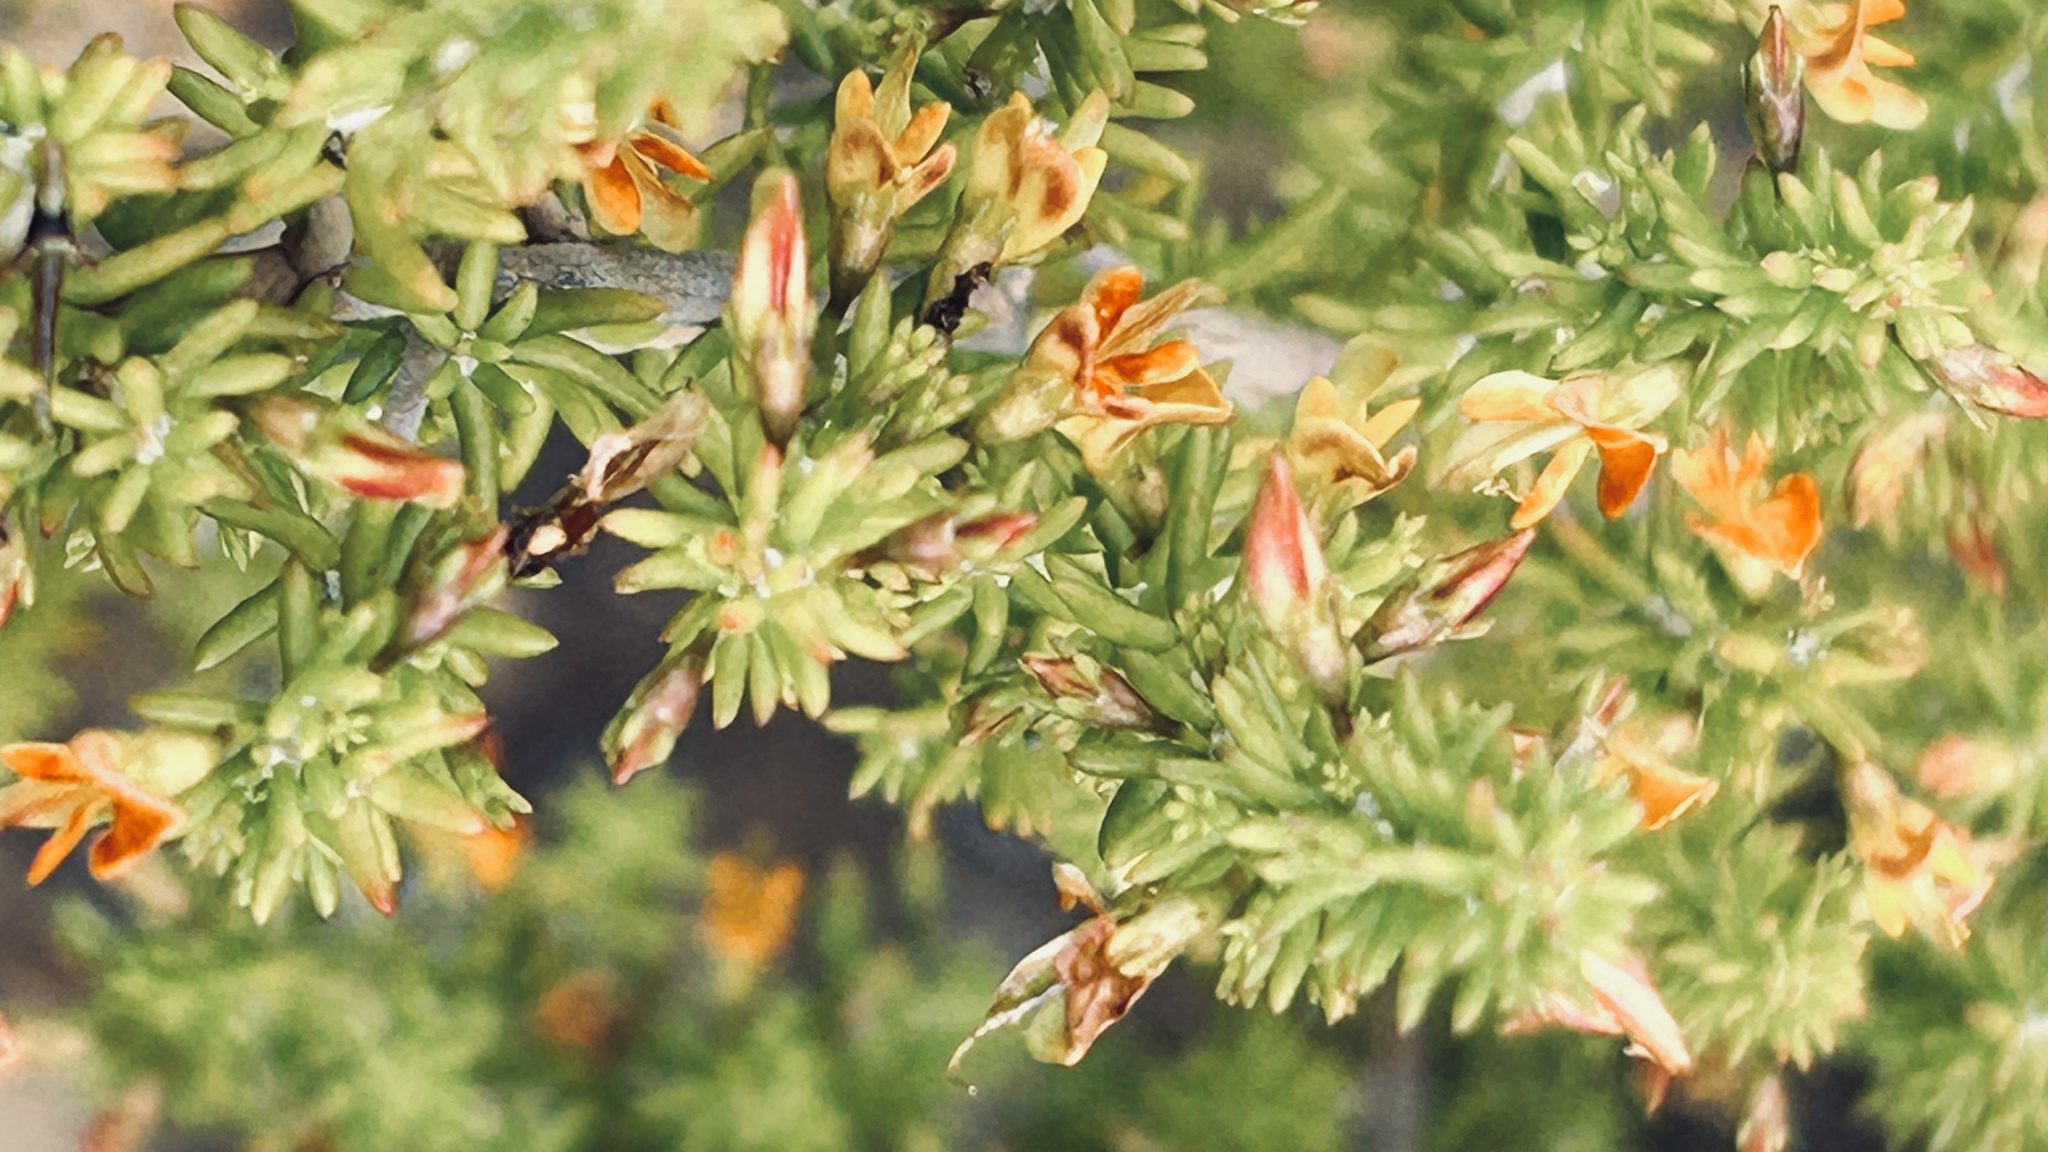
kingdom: Plantae
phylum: Tracheophyta
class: Magnoliopsida
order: Fabales
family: Fabaceae
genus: Aspalathus
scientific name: Aspalathus subtingens
